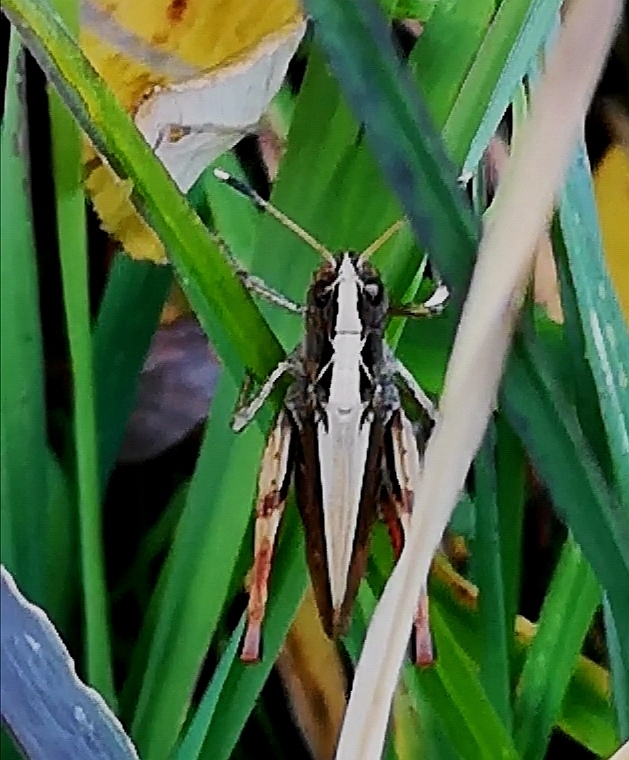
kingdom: Animalia
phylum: Arthropoda
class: Insecta
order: Orthoptera
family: Acrididae
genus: Gomphocerippus
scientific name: Gomphocerippus rufus
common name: Rufous grasshopper
